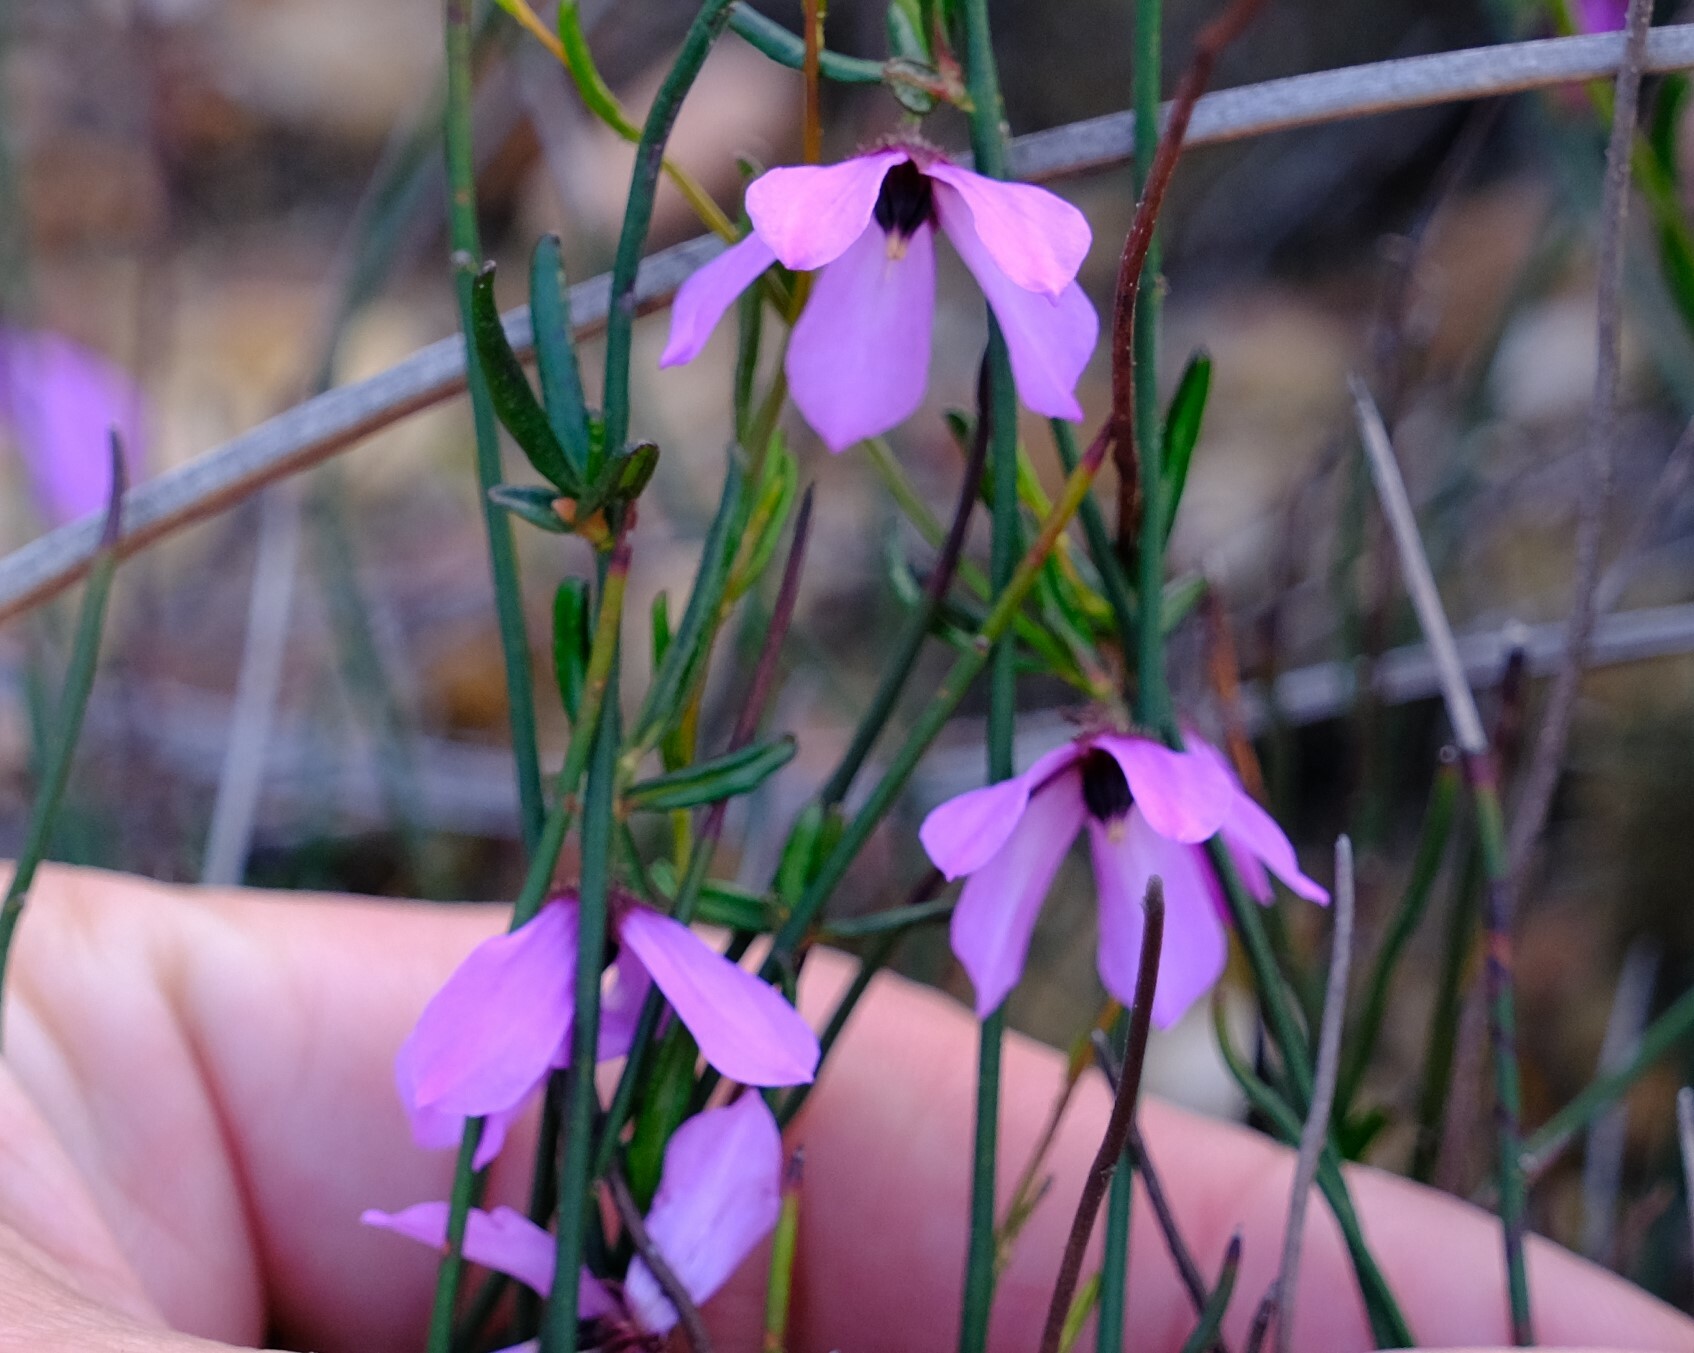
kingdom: Plantae
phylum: Tracheophyta
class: Magnoliopsida
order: Oxalidales
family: Elaeocarpaceae
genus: Tetratheca
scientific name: Tetratheca paucifolia
